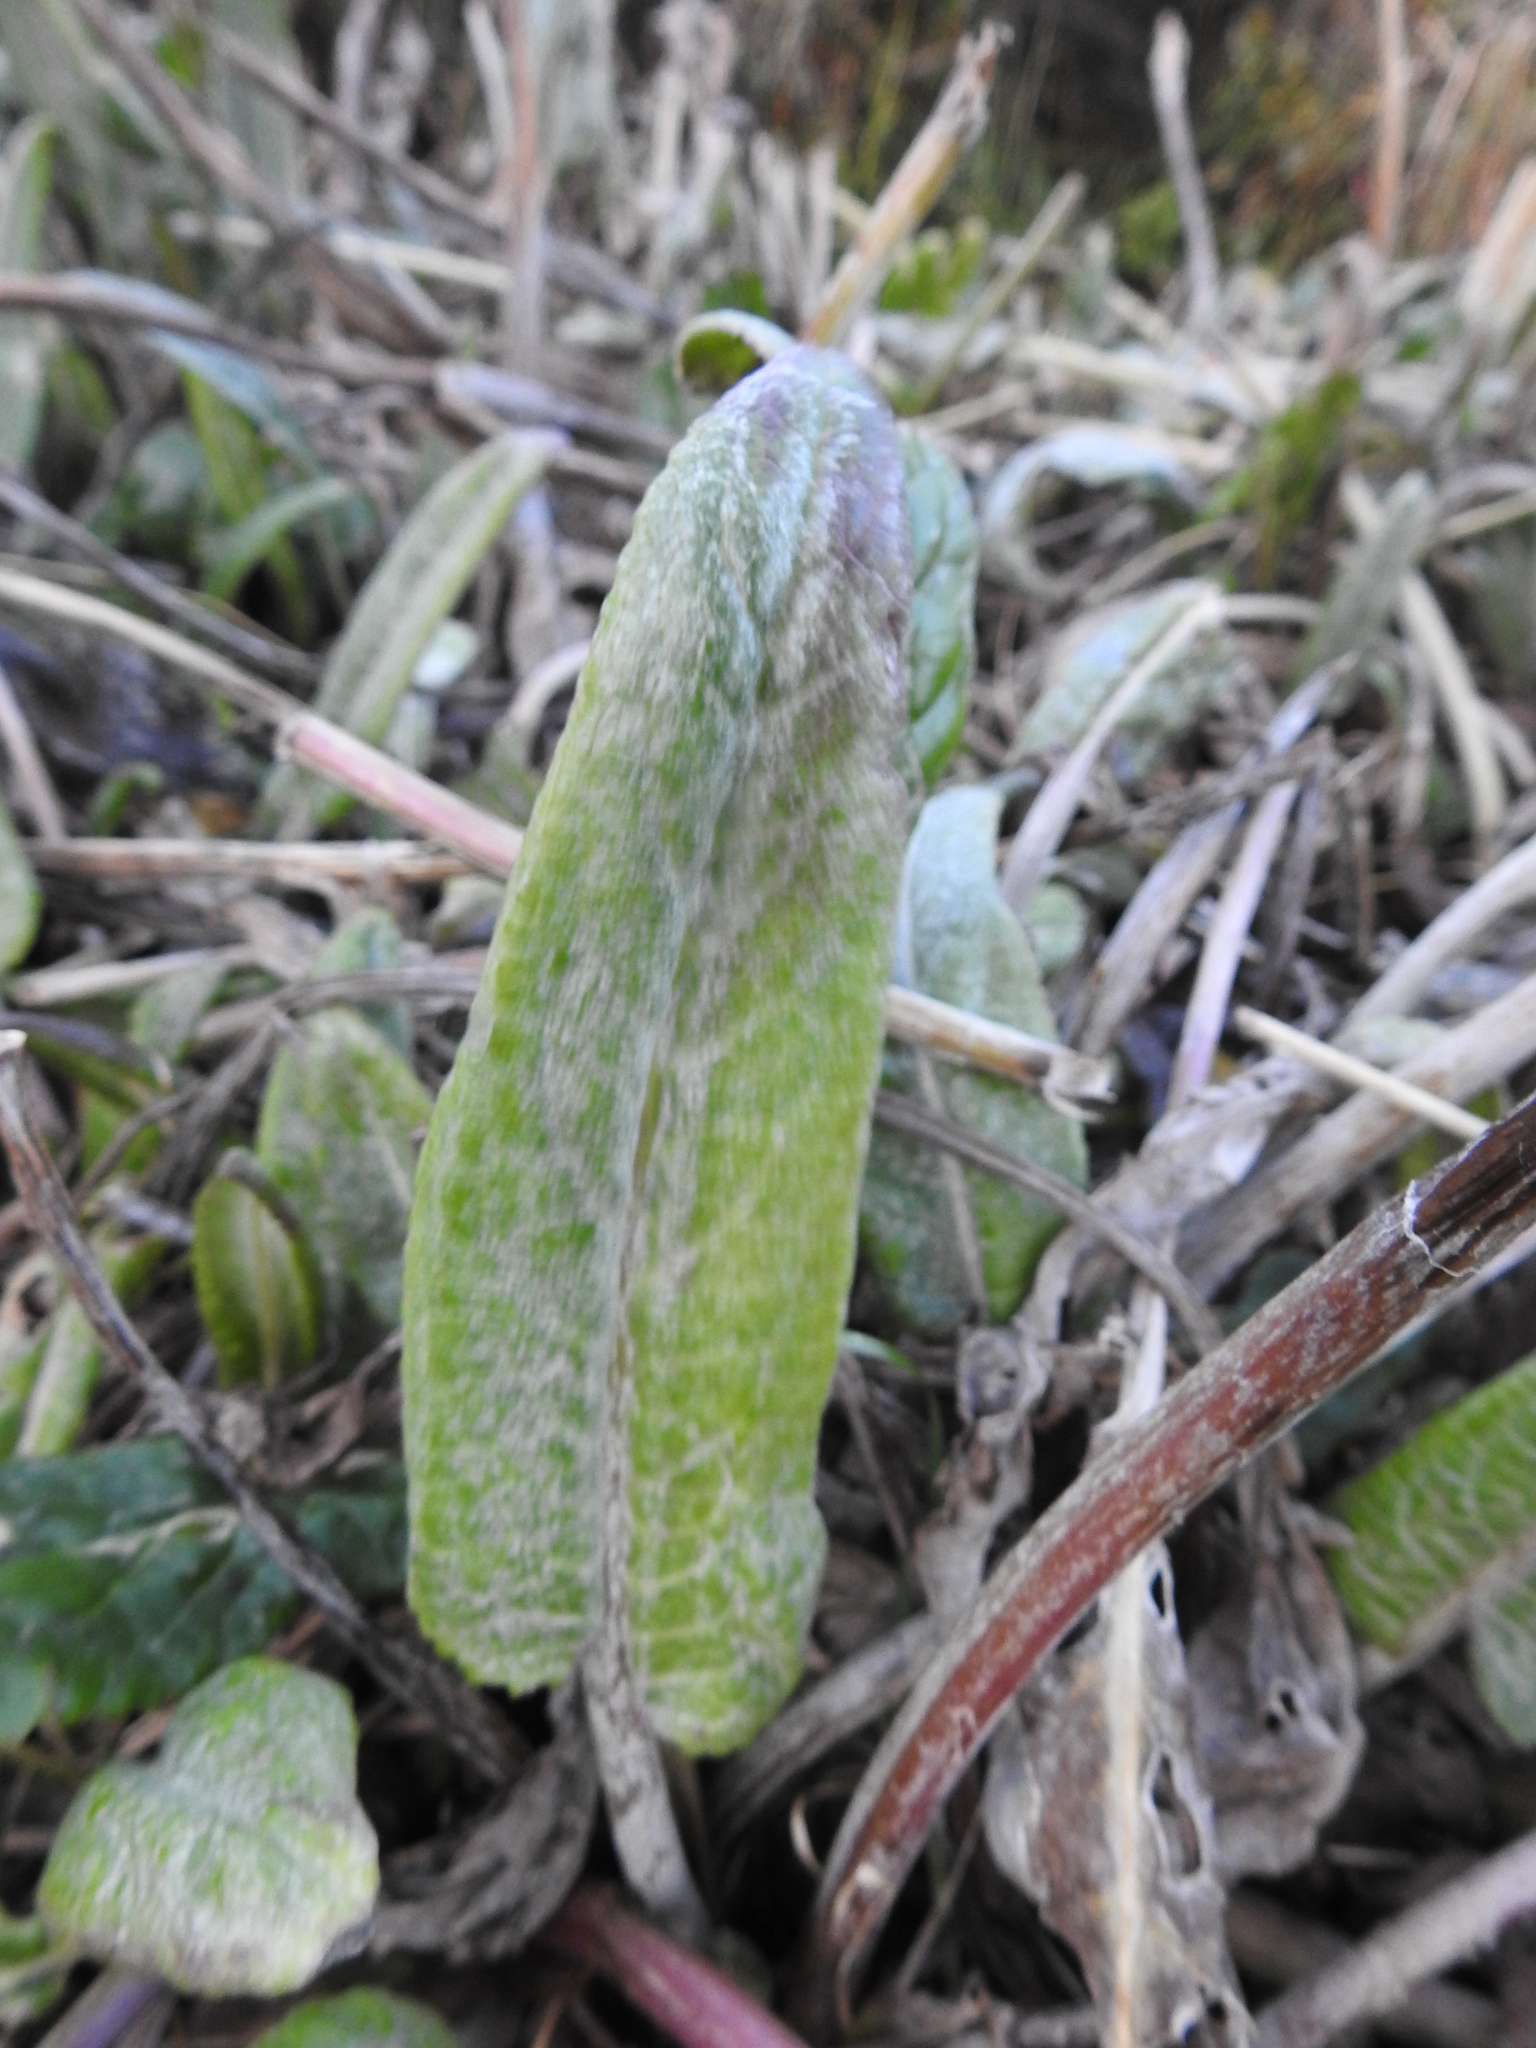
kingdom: Plantae
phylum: Tracheophyta
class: Magnoliopsida
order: Asterales
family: Asteraceae
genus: Senecio
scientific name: Senecio smithii
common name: Magellan ragwort
